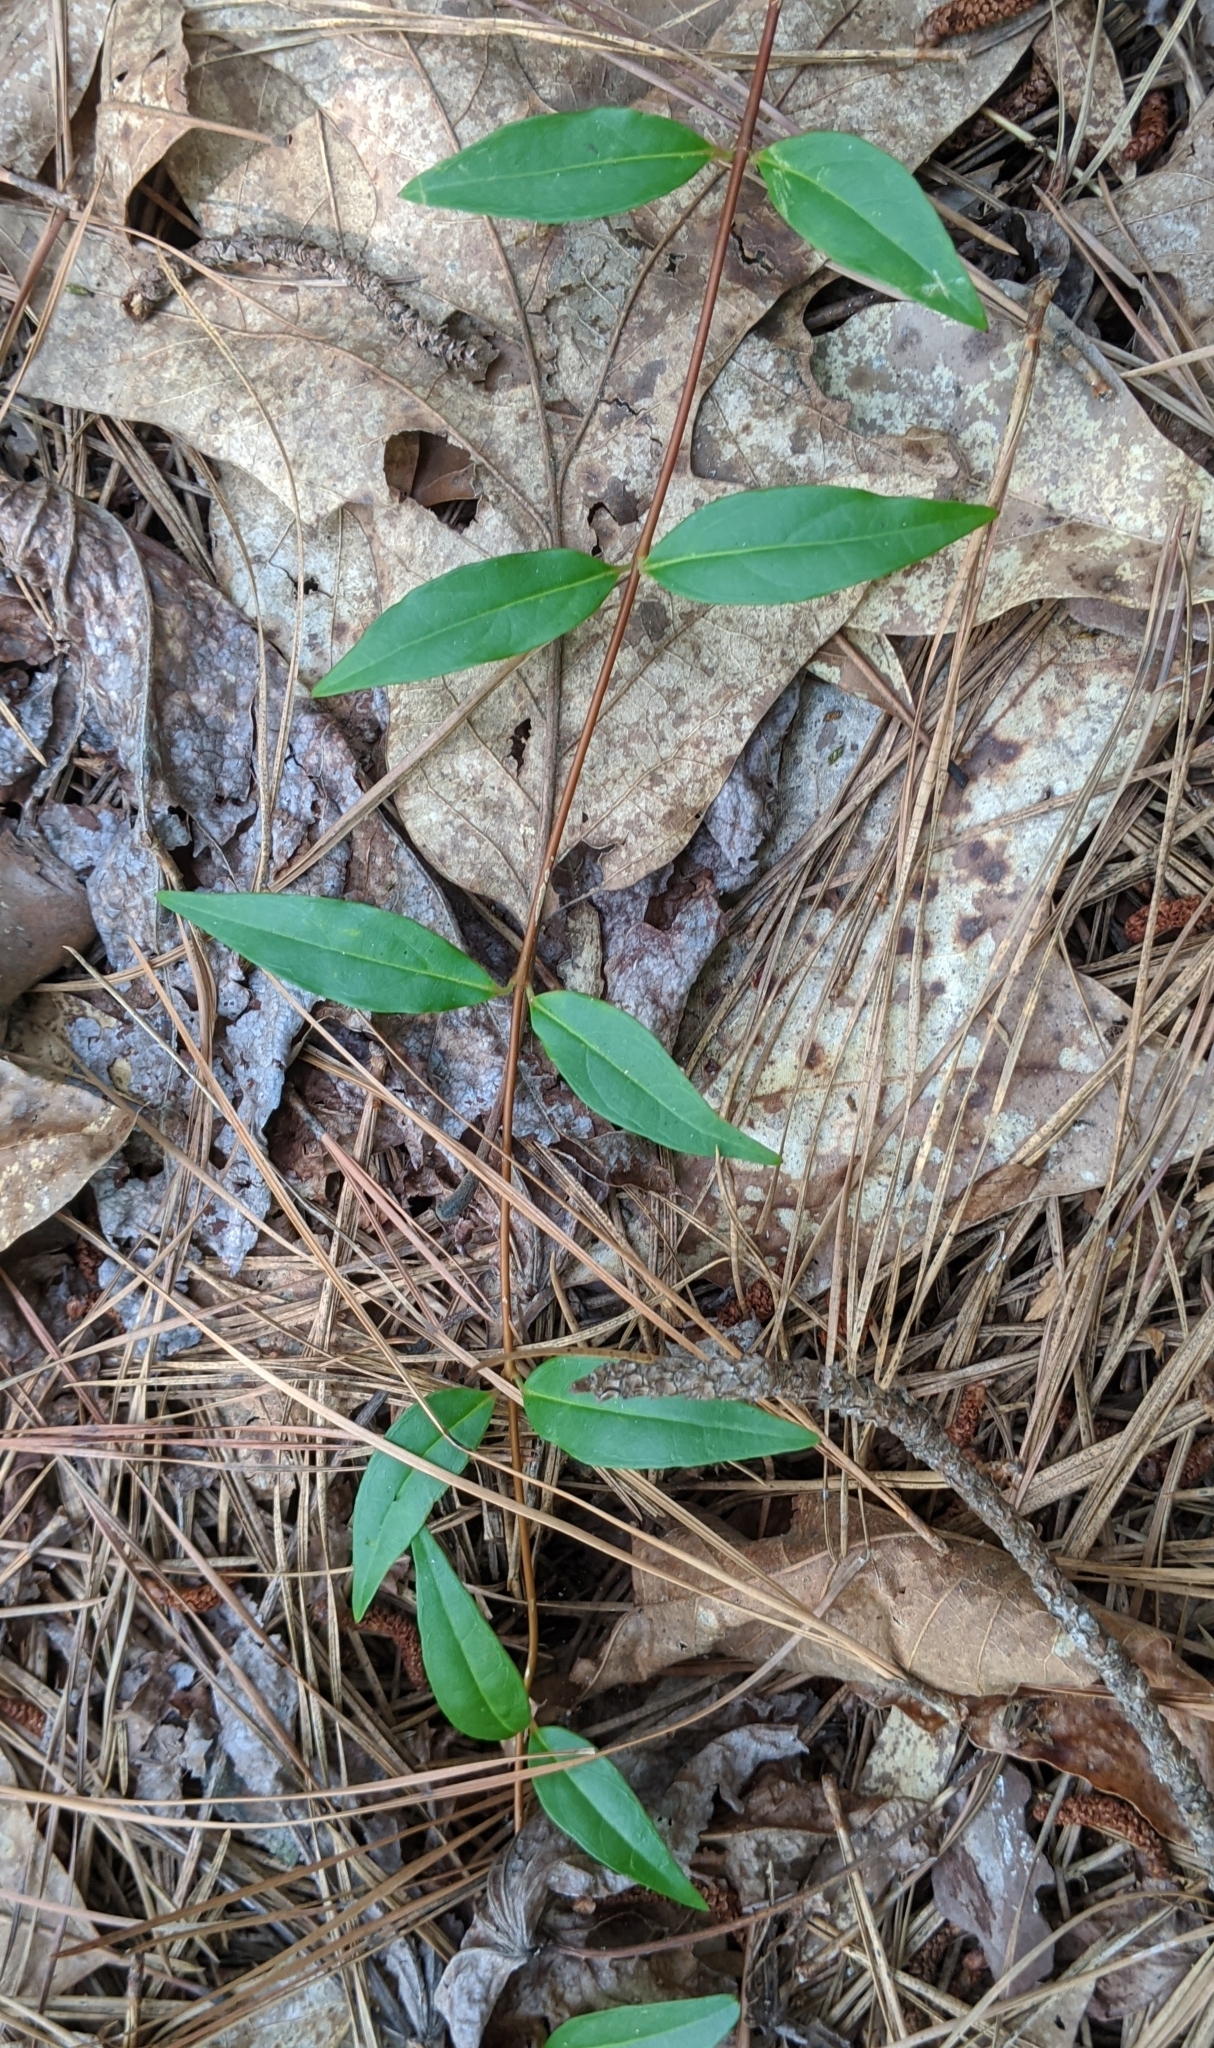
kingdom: Plantae
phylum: Tracheophyta
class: Magnoliopsida
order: Gentianales
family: Gelsemiaceae
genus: Gelsemium
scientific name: Gelsemium sempervirens
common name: Carolina-jasmine
